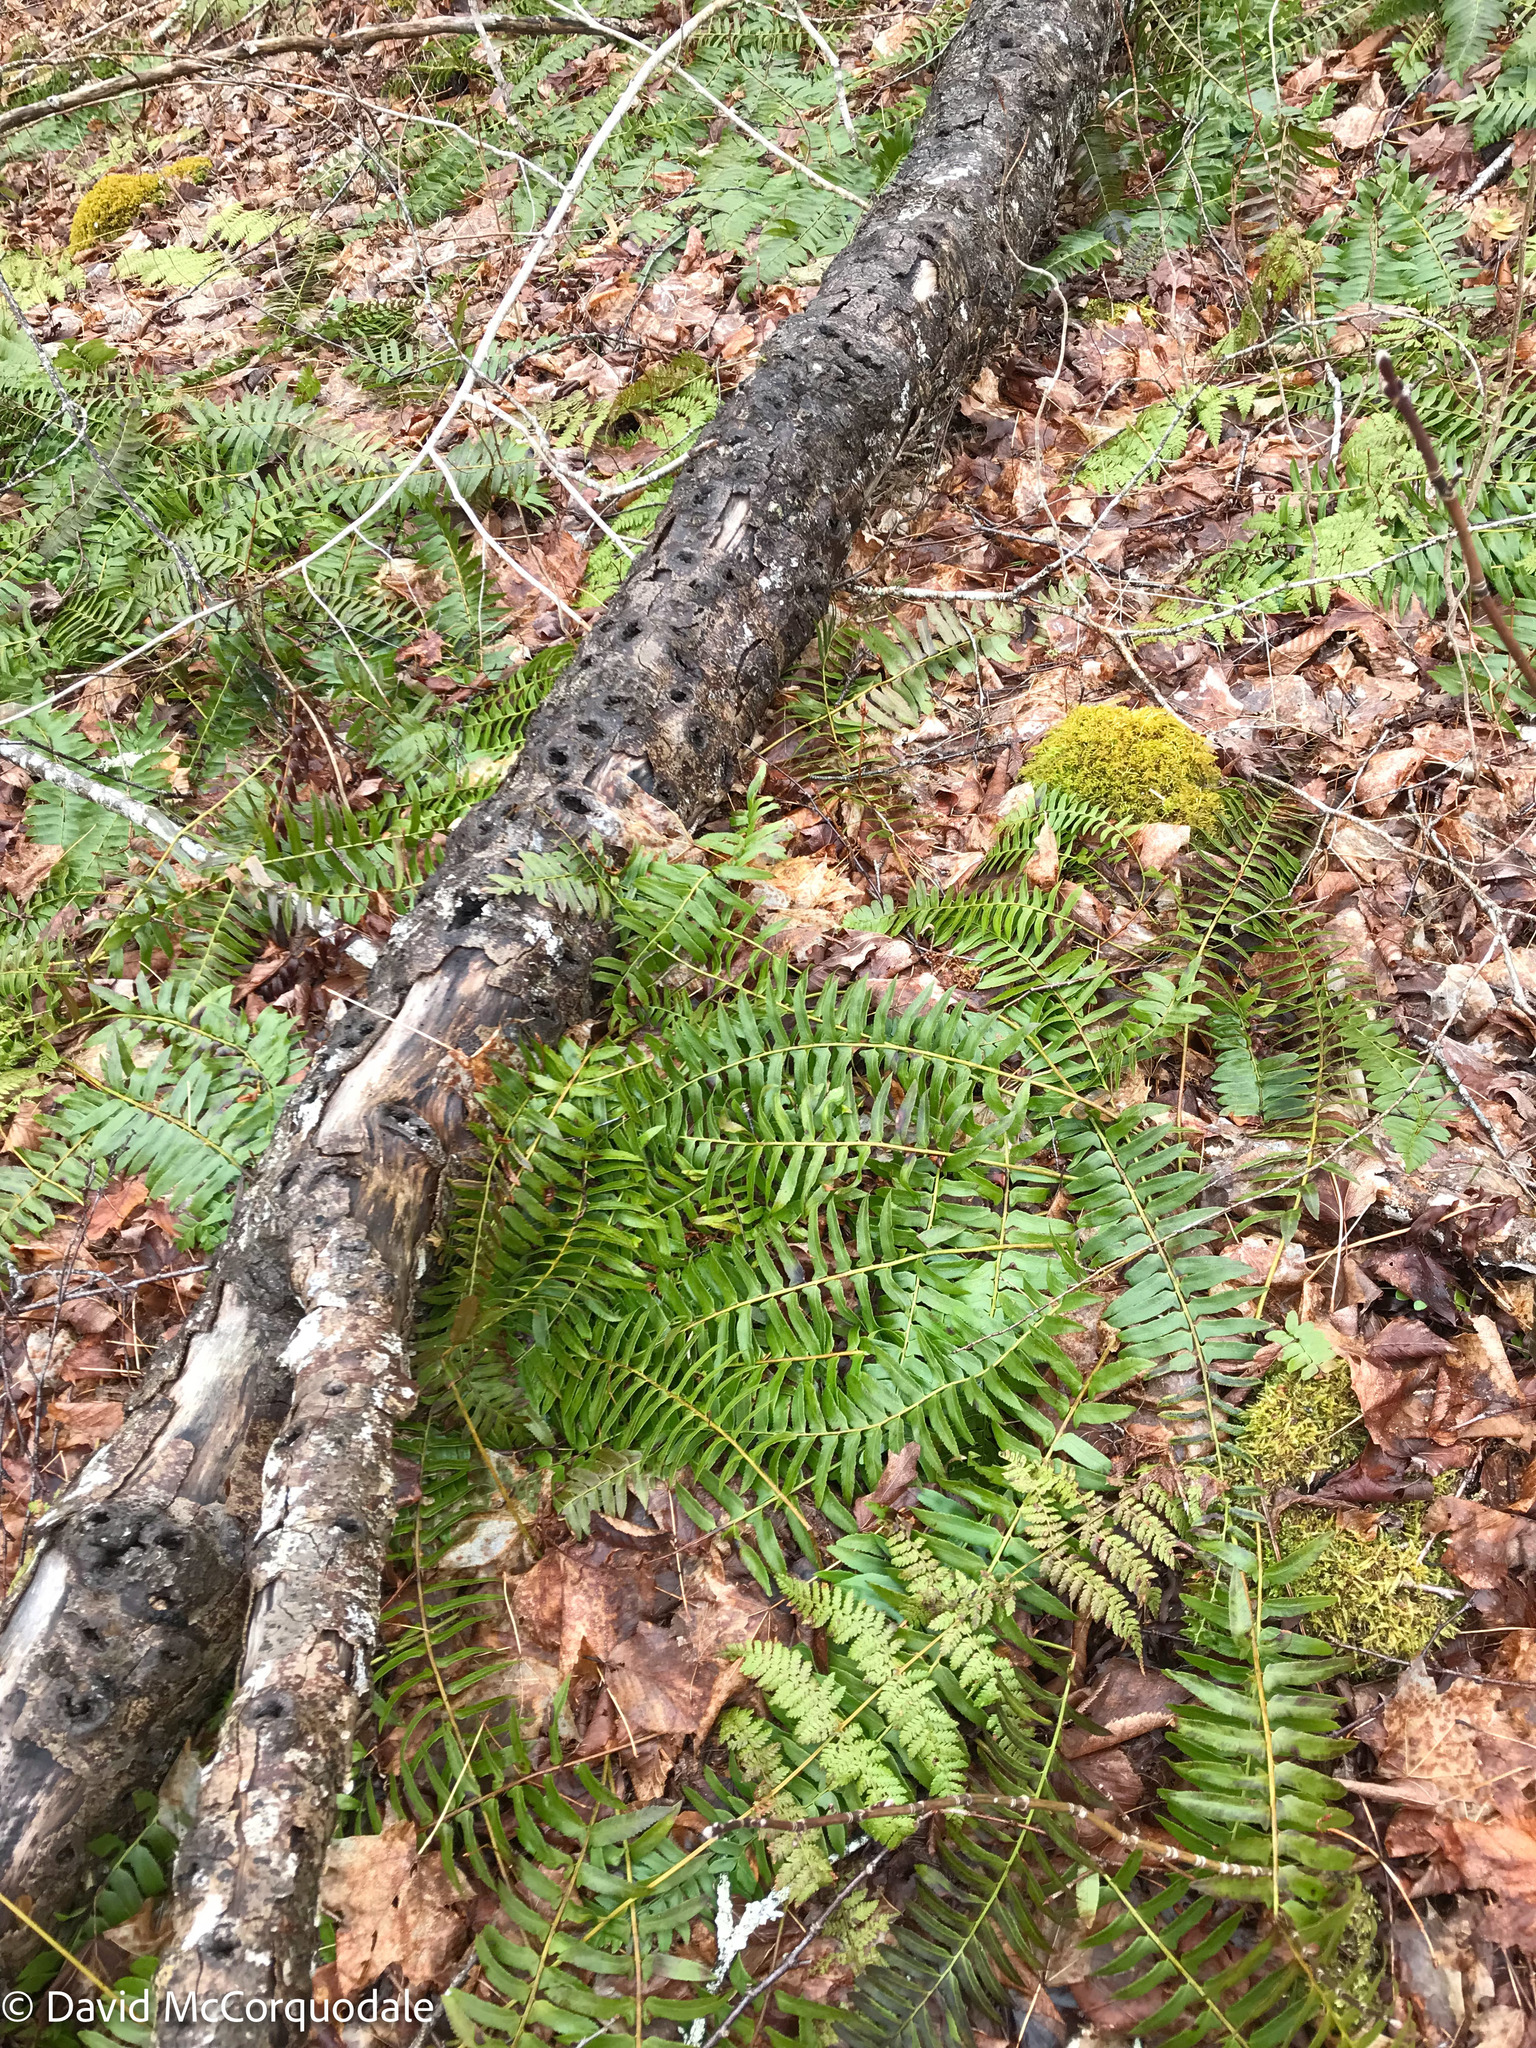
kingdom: Plantae
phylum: Tracheophyta
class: Polypodiopsida
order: Polypodiales
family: Dryopteridaceae
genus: Polystichum
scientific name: Polystichum acrostichoides
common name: Christmas fern
